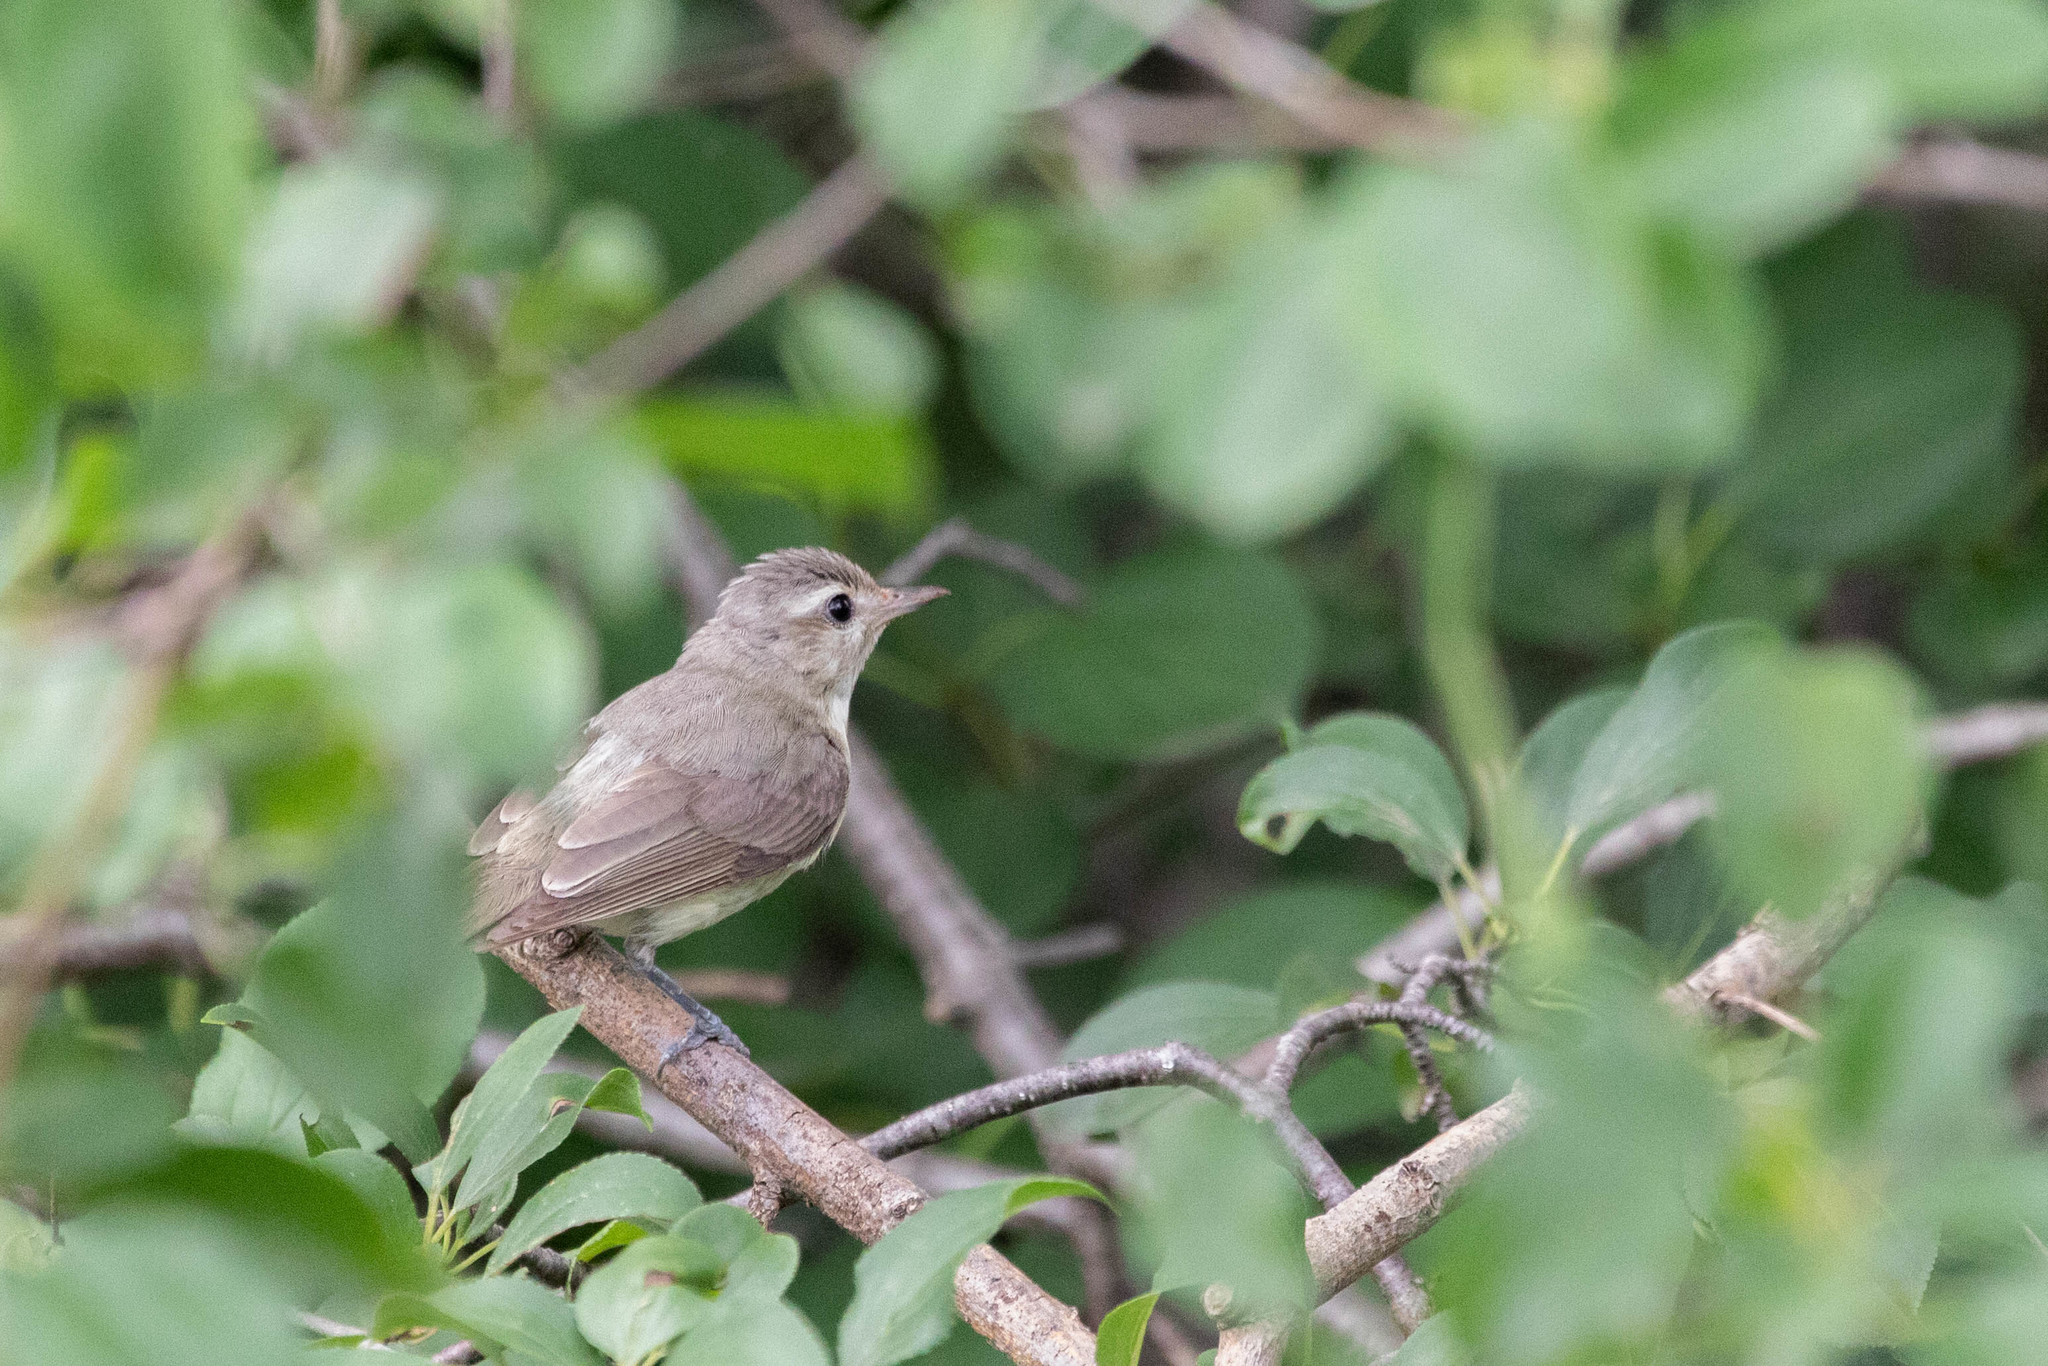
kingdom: Animalia
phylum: Chordata
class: Aves
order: Passeriformes
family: Vireonidae
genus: Vireo
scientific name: Vireo gilvus
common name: Warbling vireo
